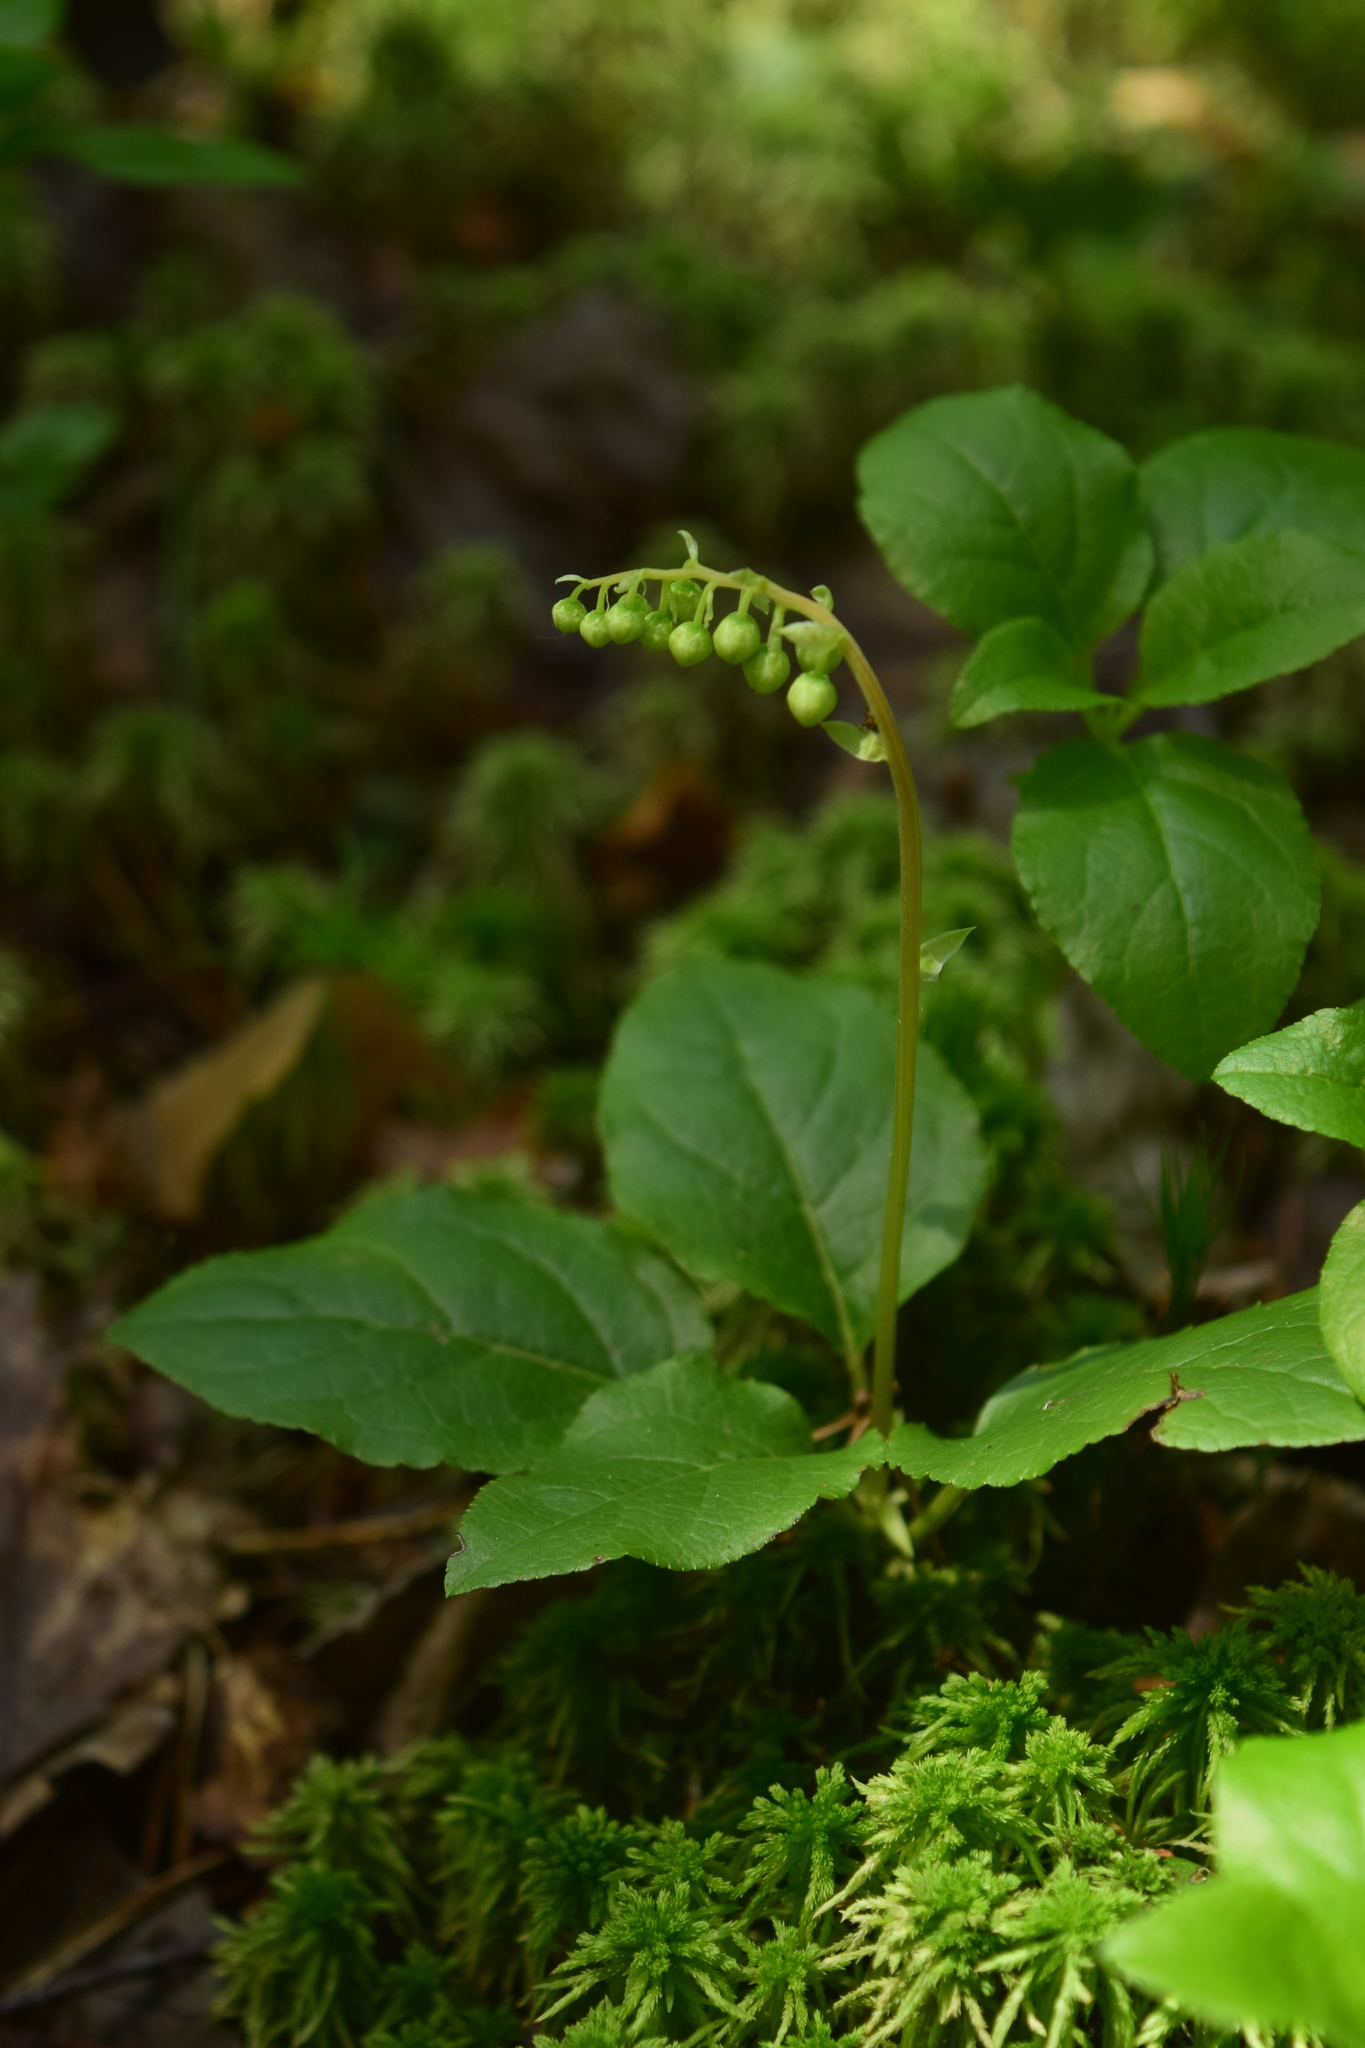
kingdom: Plantae
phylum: Tracheophyta
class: Magnoliopsida
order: Ericales
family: Ericaceae
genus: Orthilia
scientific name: Orthilia secunda
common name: One-sided orthilia
